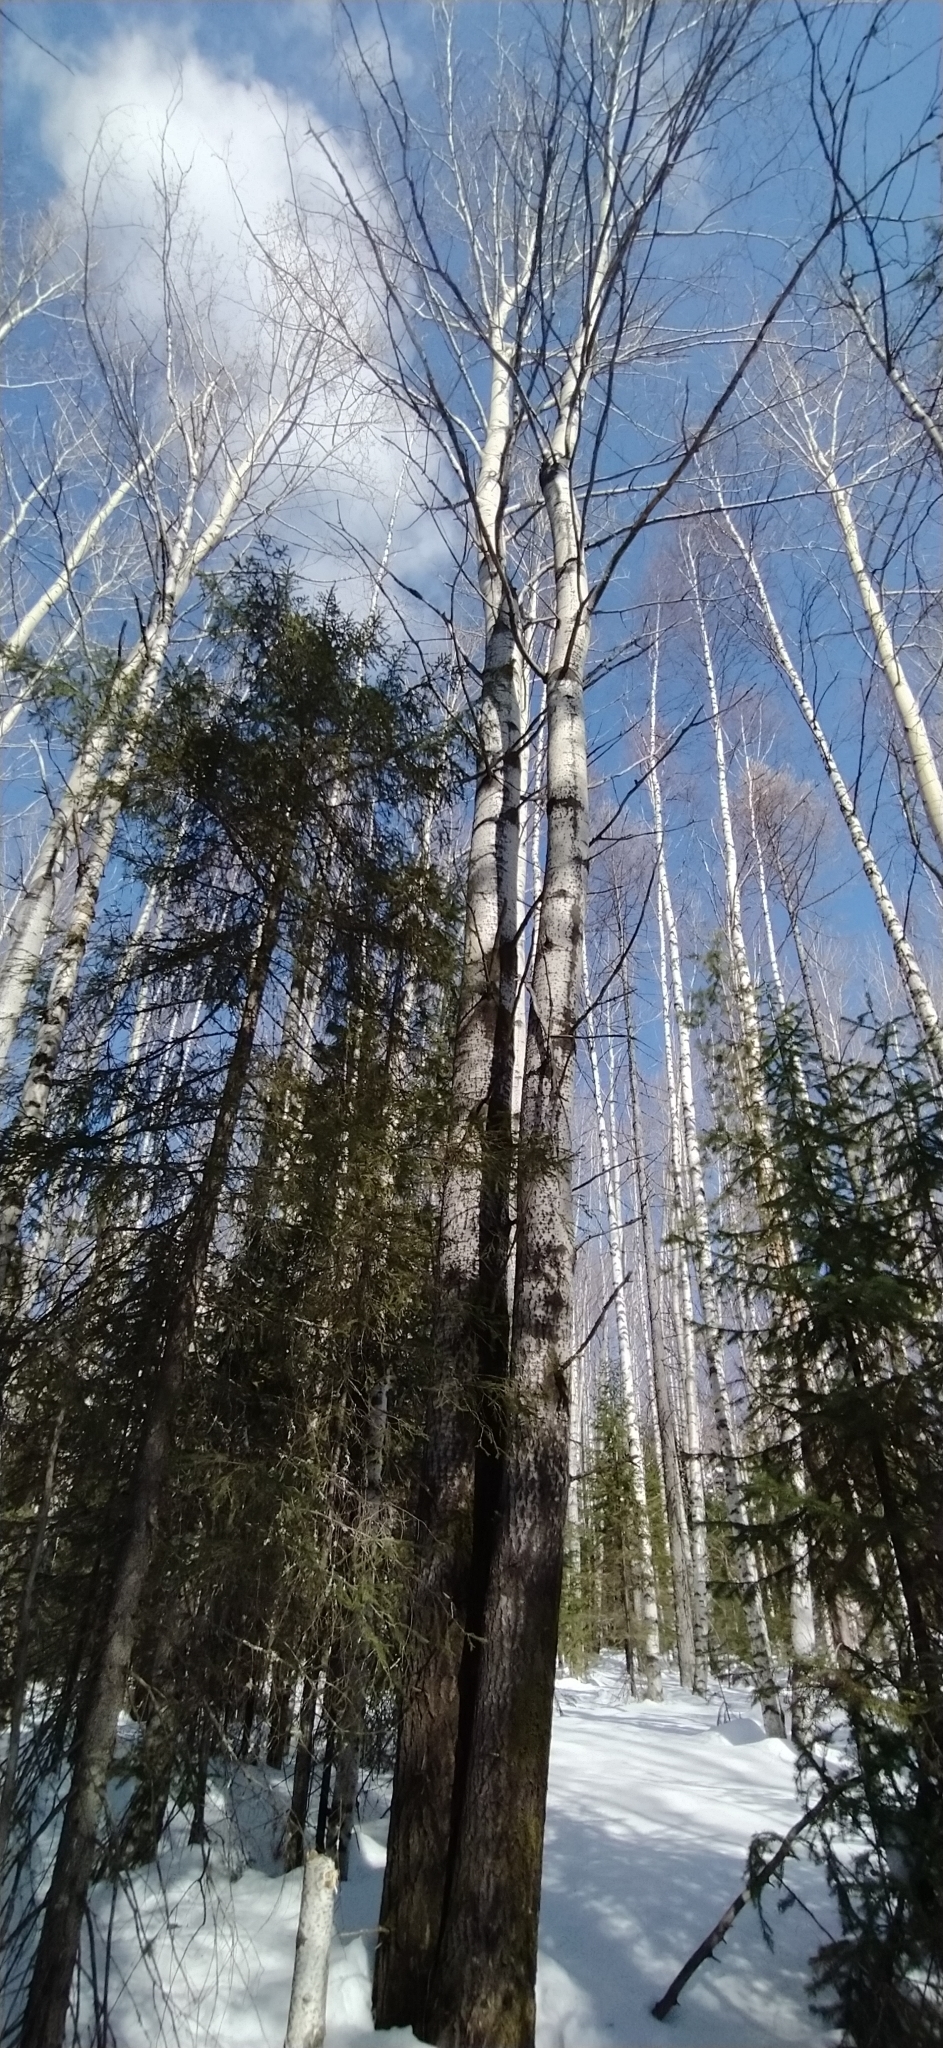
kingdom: Plantae
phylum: Tracheophyta
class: Magnoliopsida
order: Malpighiales
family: Salicaceae
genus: Populus
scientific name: Populus tremula
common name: European aspen
